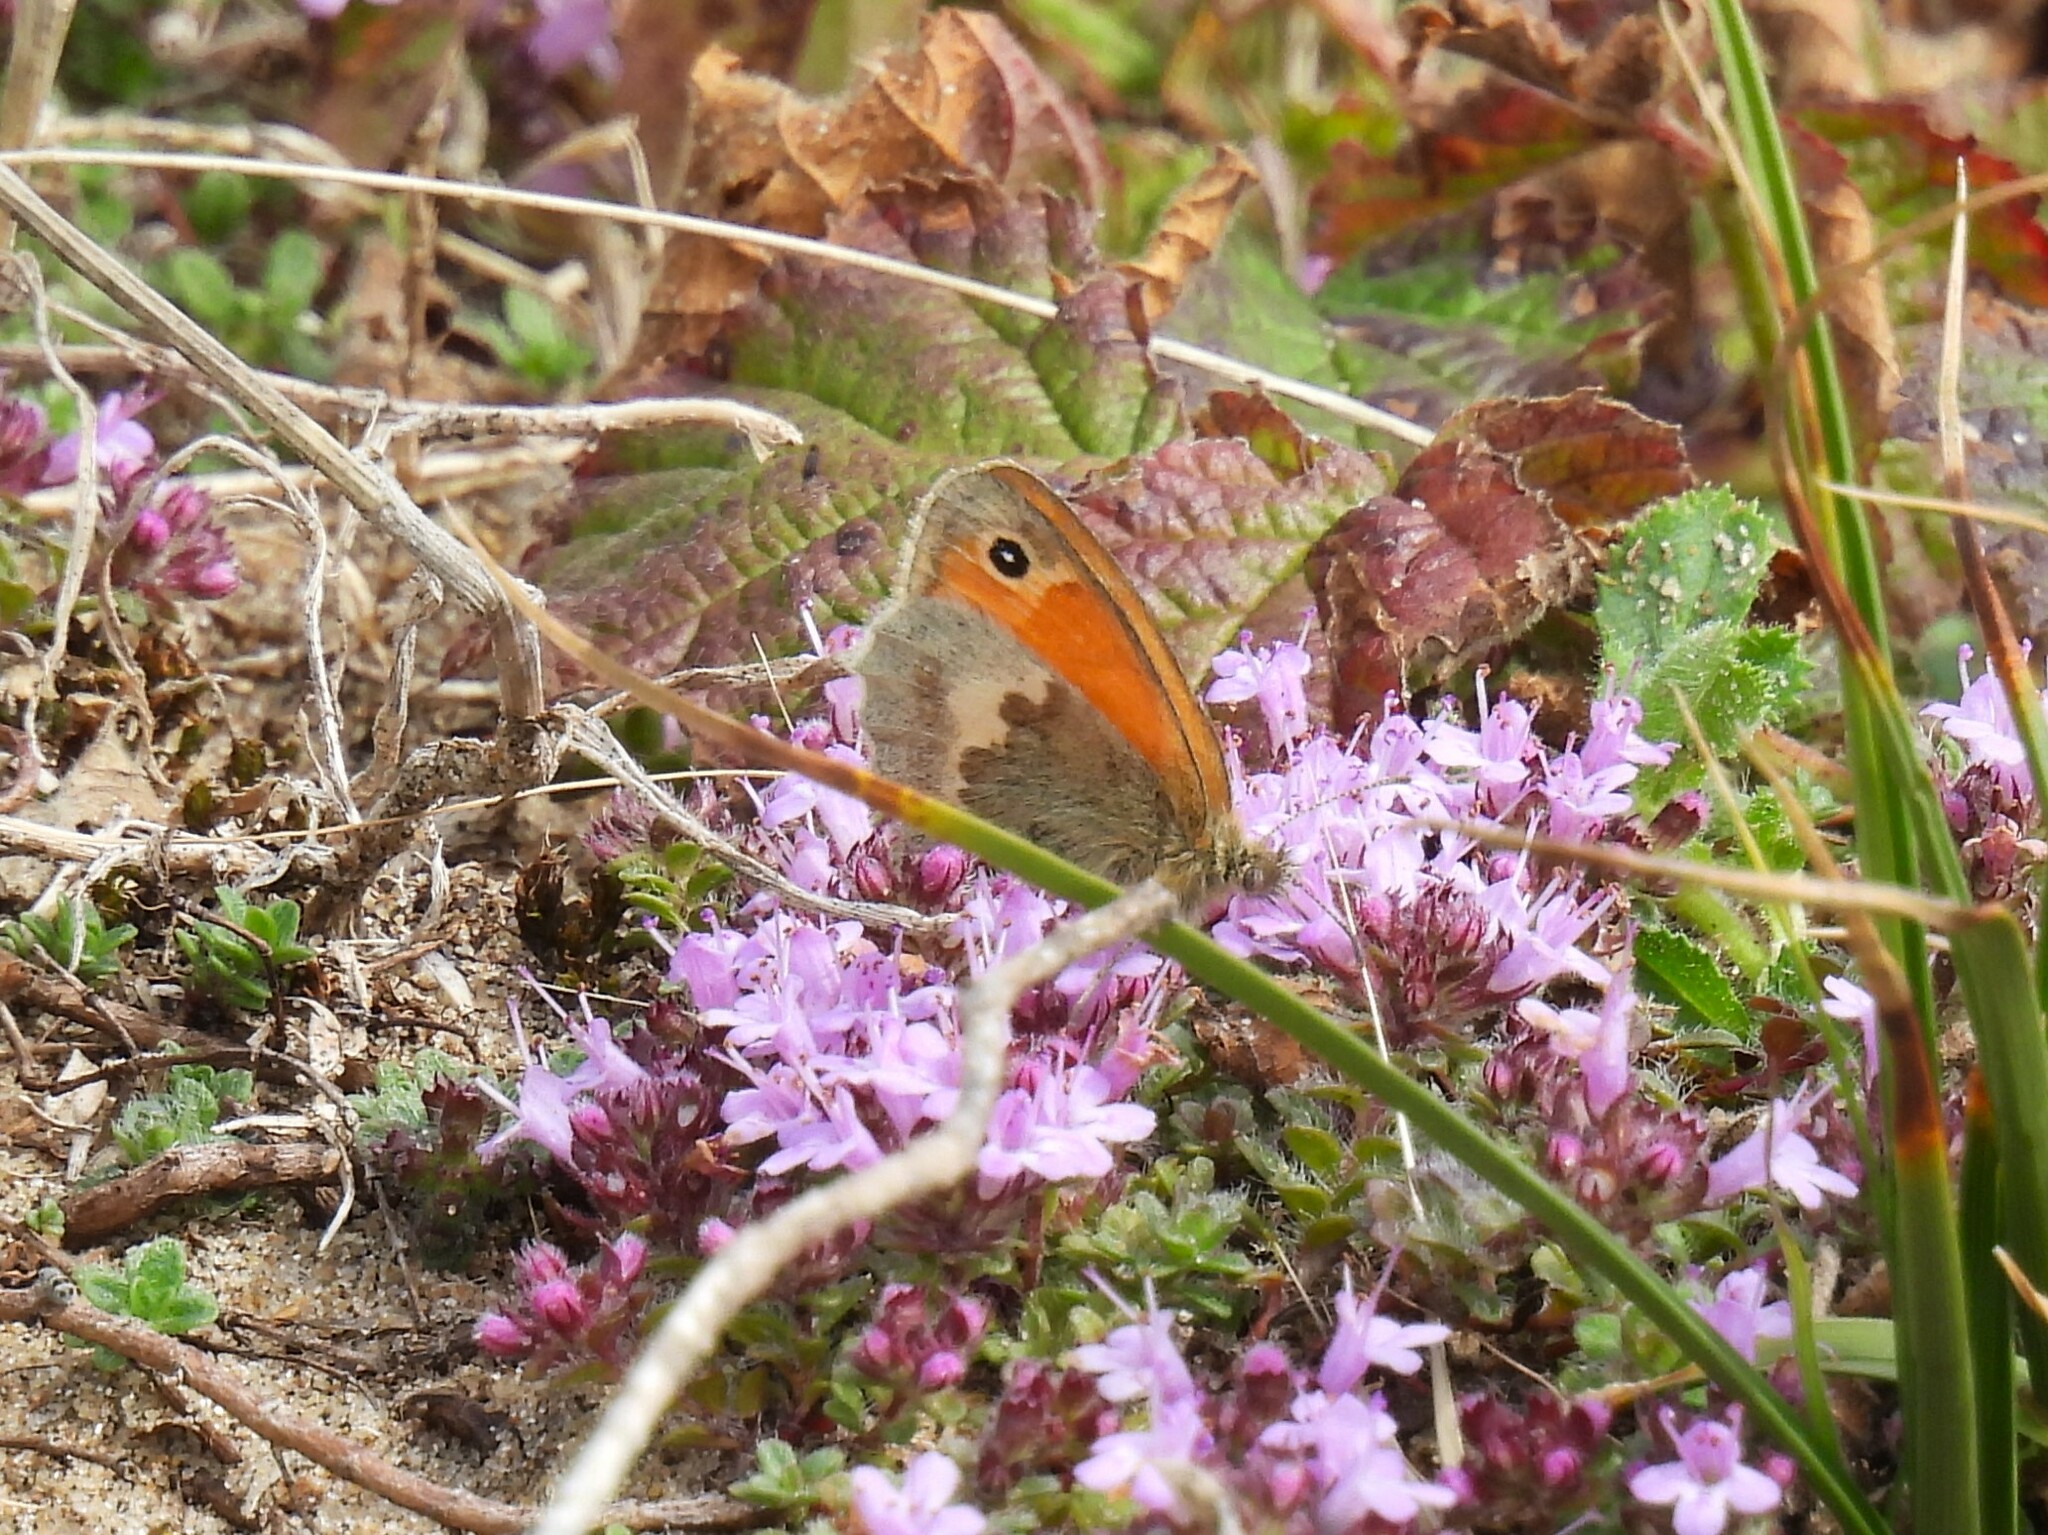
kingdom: Animalia
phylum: Arthropoda
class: Insecta
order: Lepidoptera
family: Nymphalidae
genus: Coenonympha
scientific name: Coenonympha pamphilus
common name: Small heath
